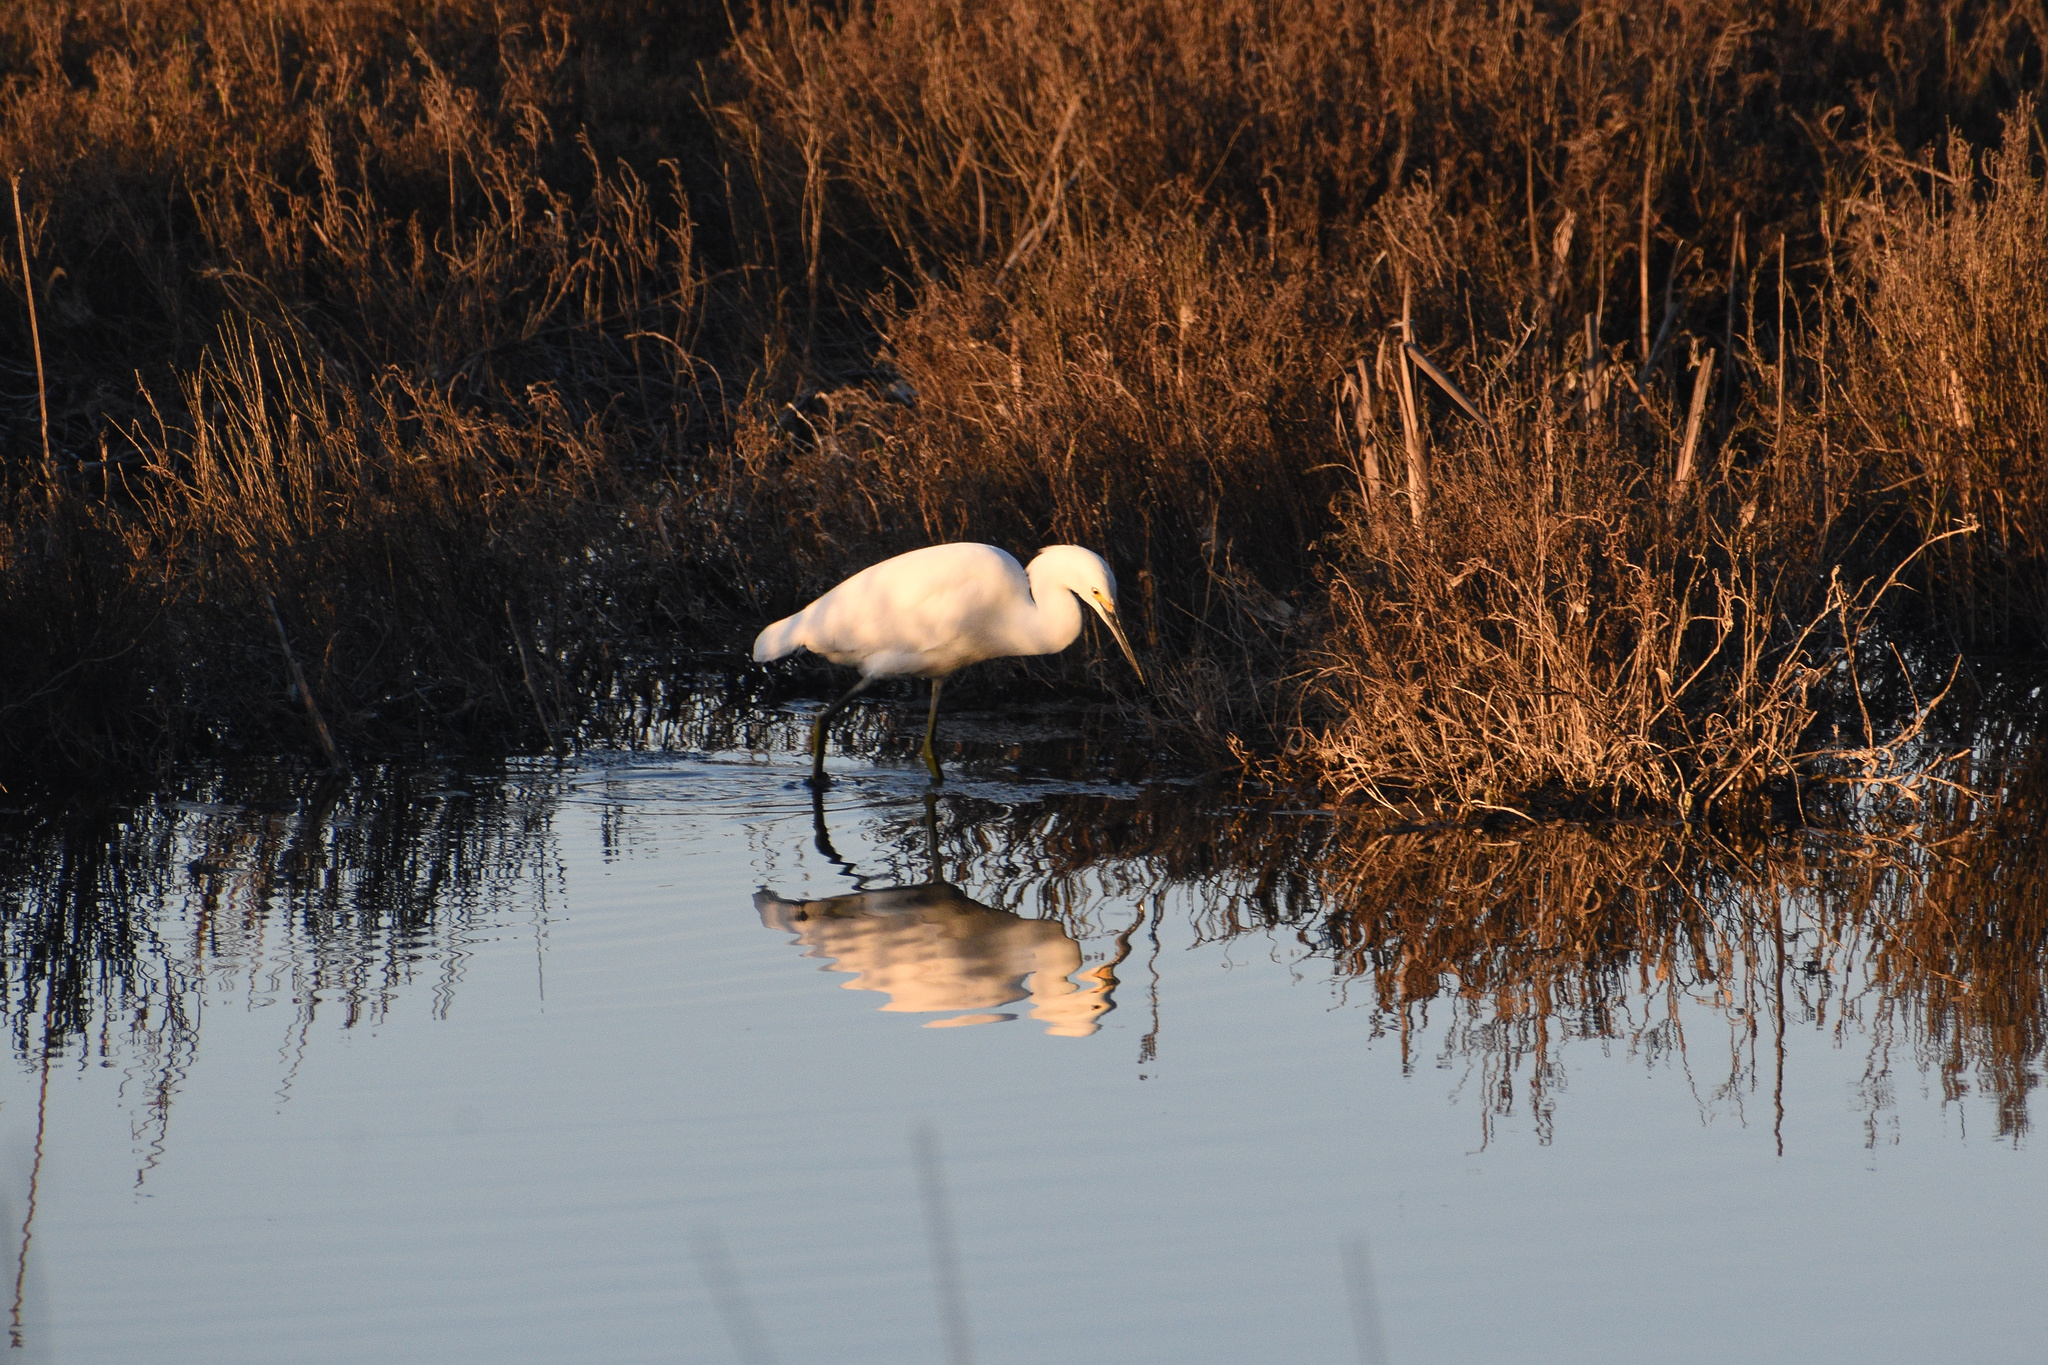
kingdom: Animalia
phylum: Chordata
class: Aves
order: Pelecaniformes
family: Ardeidae
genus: Egretta
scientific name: Egretta thula
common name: Snowy egret
